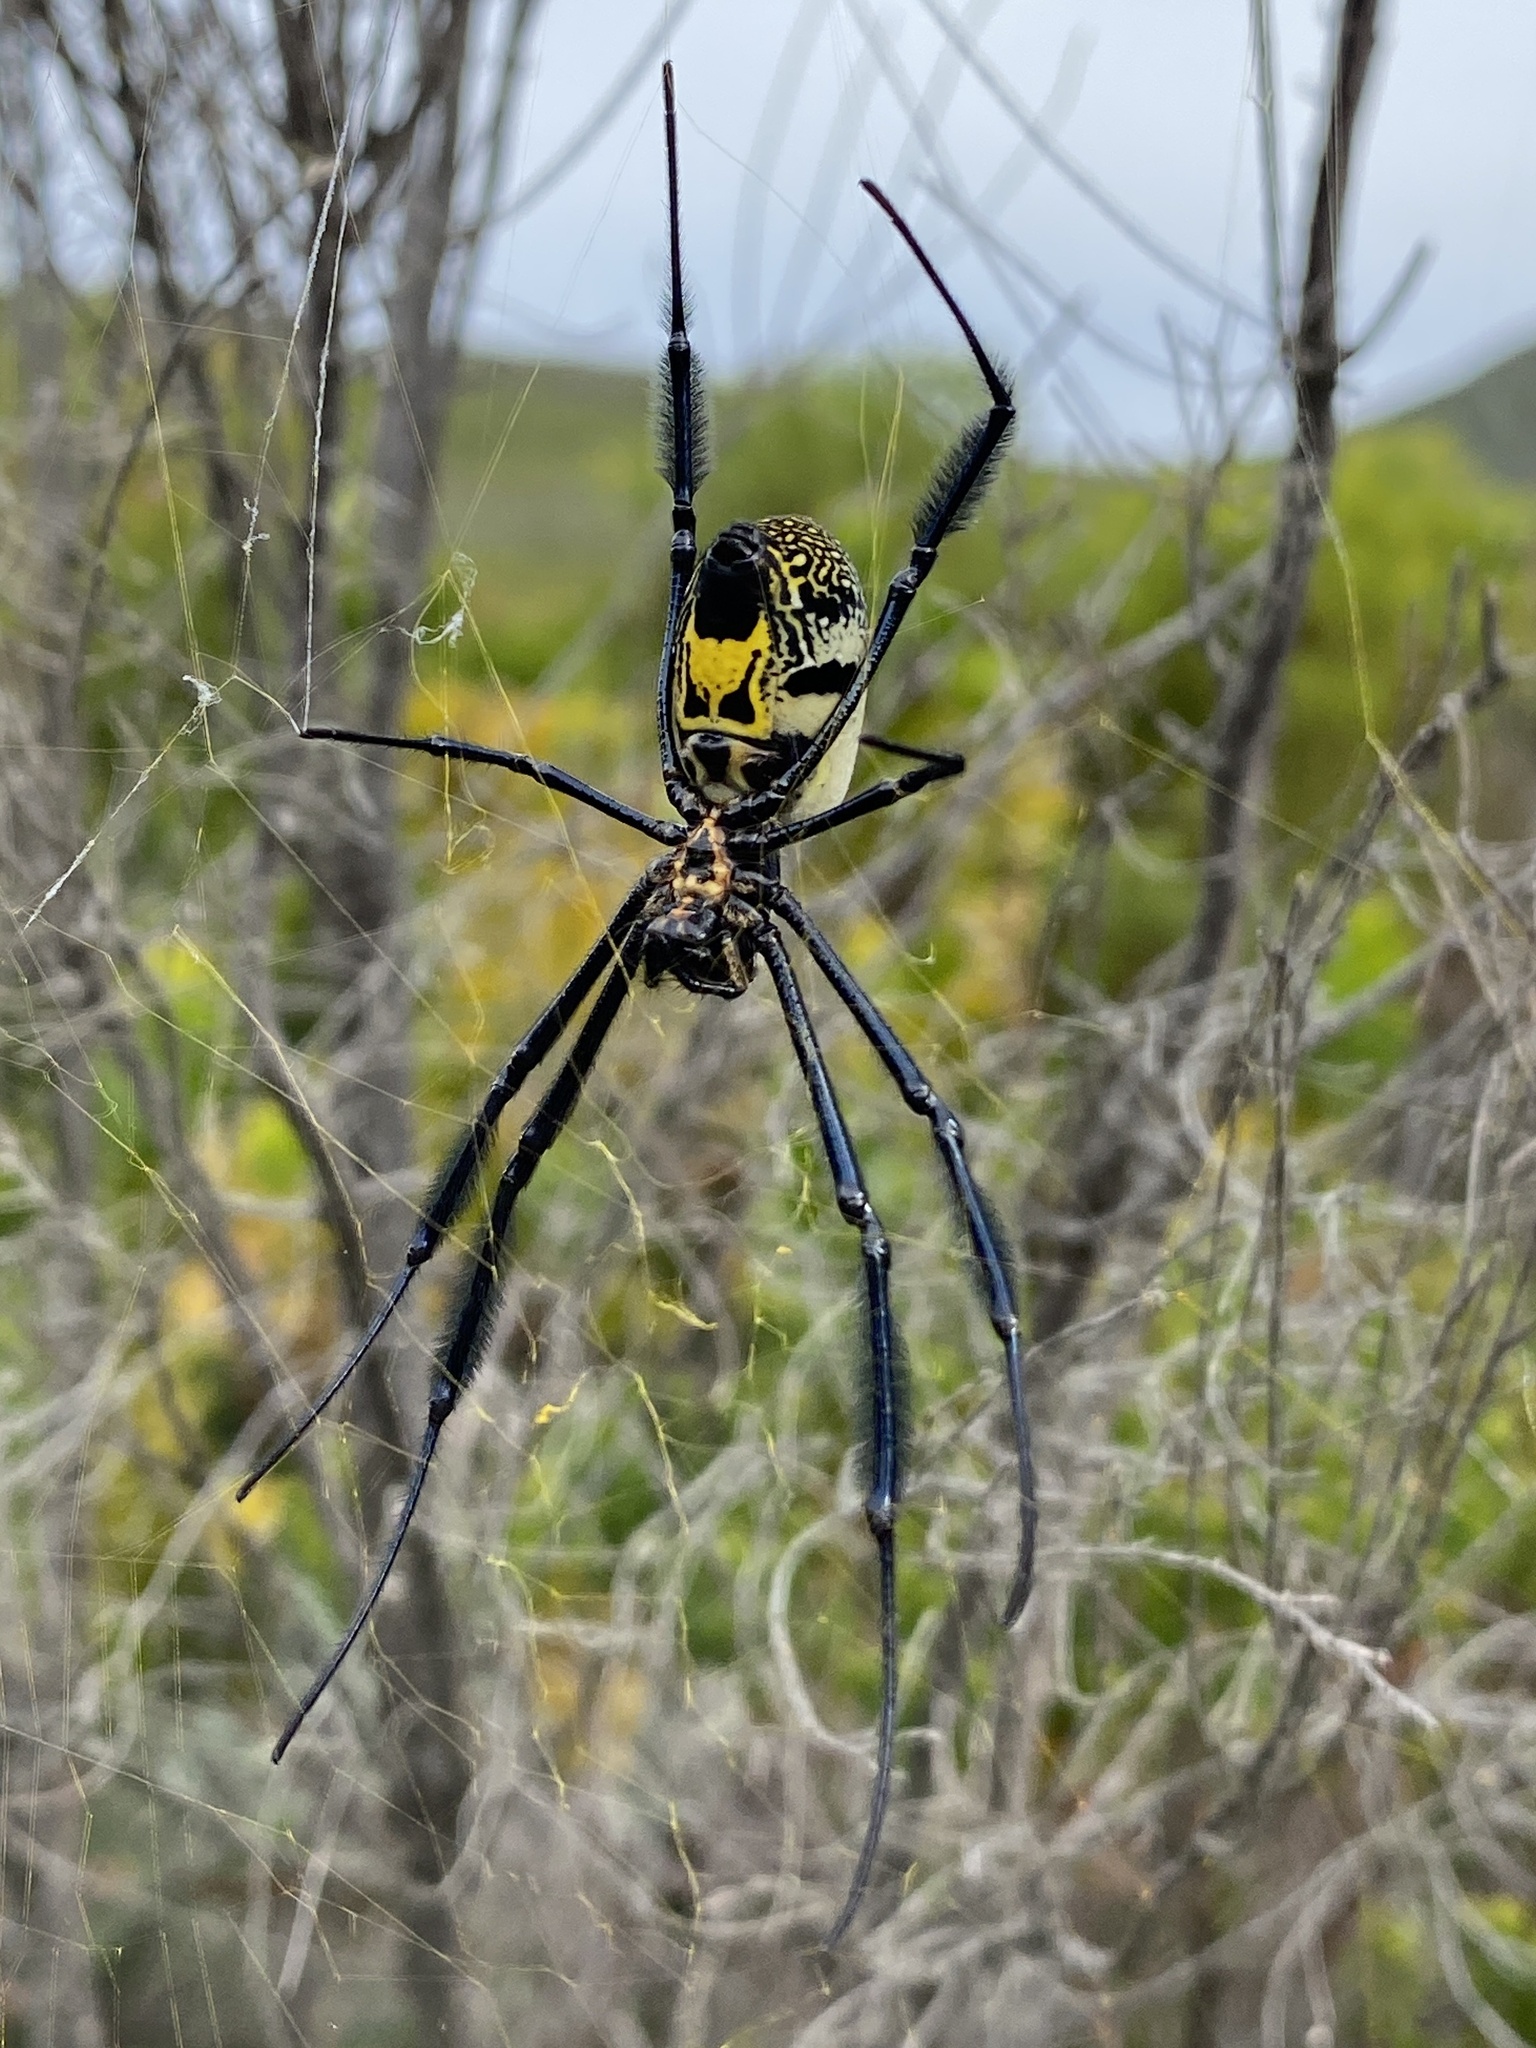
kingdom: Animalia
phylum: Arthropoda
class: Arachnida
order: Araneae
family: Araneidae
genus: Trichonephila
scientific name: Trichonephila fenestrata
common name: Hairy golden orb weaver
